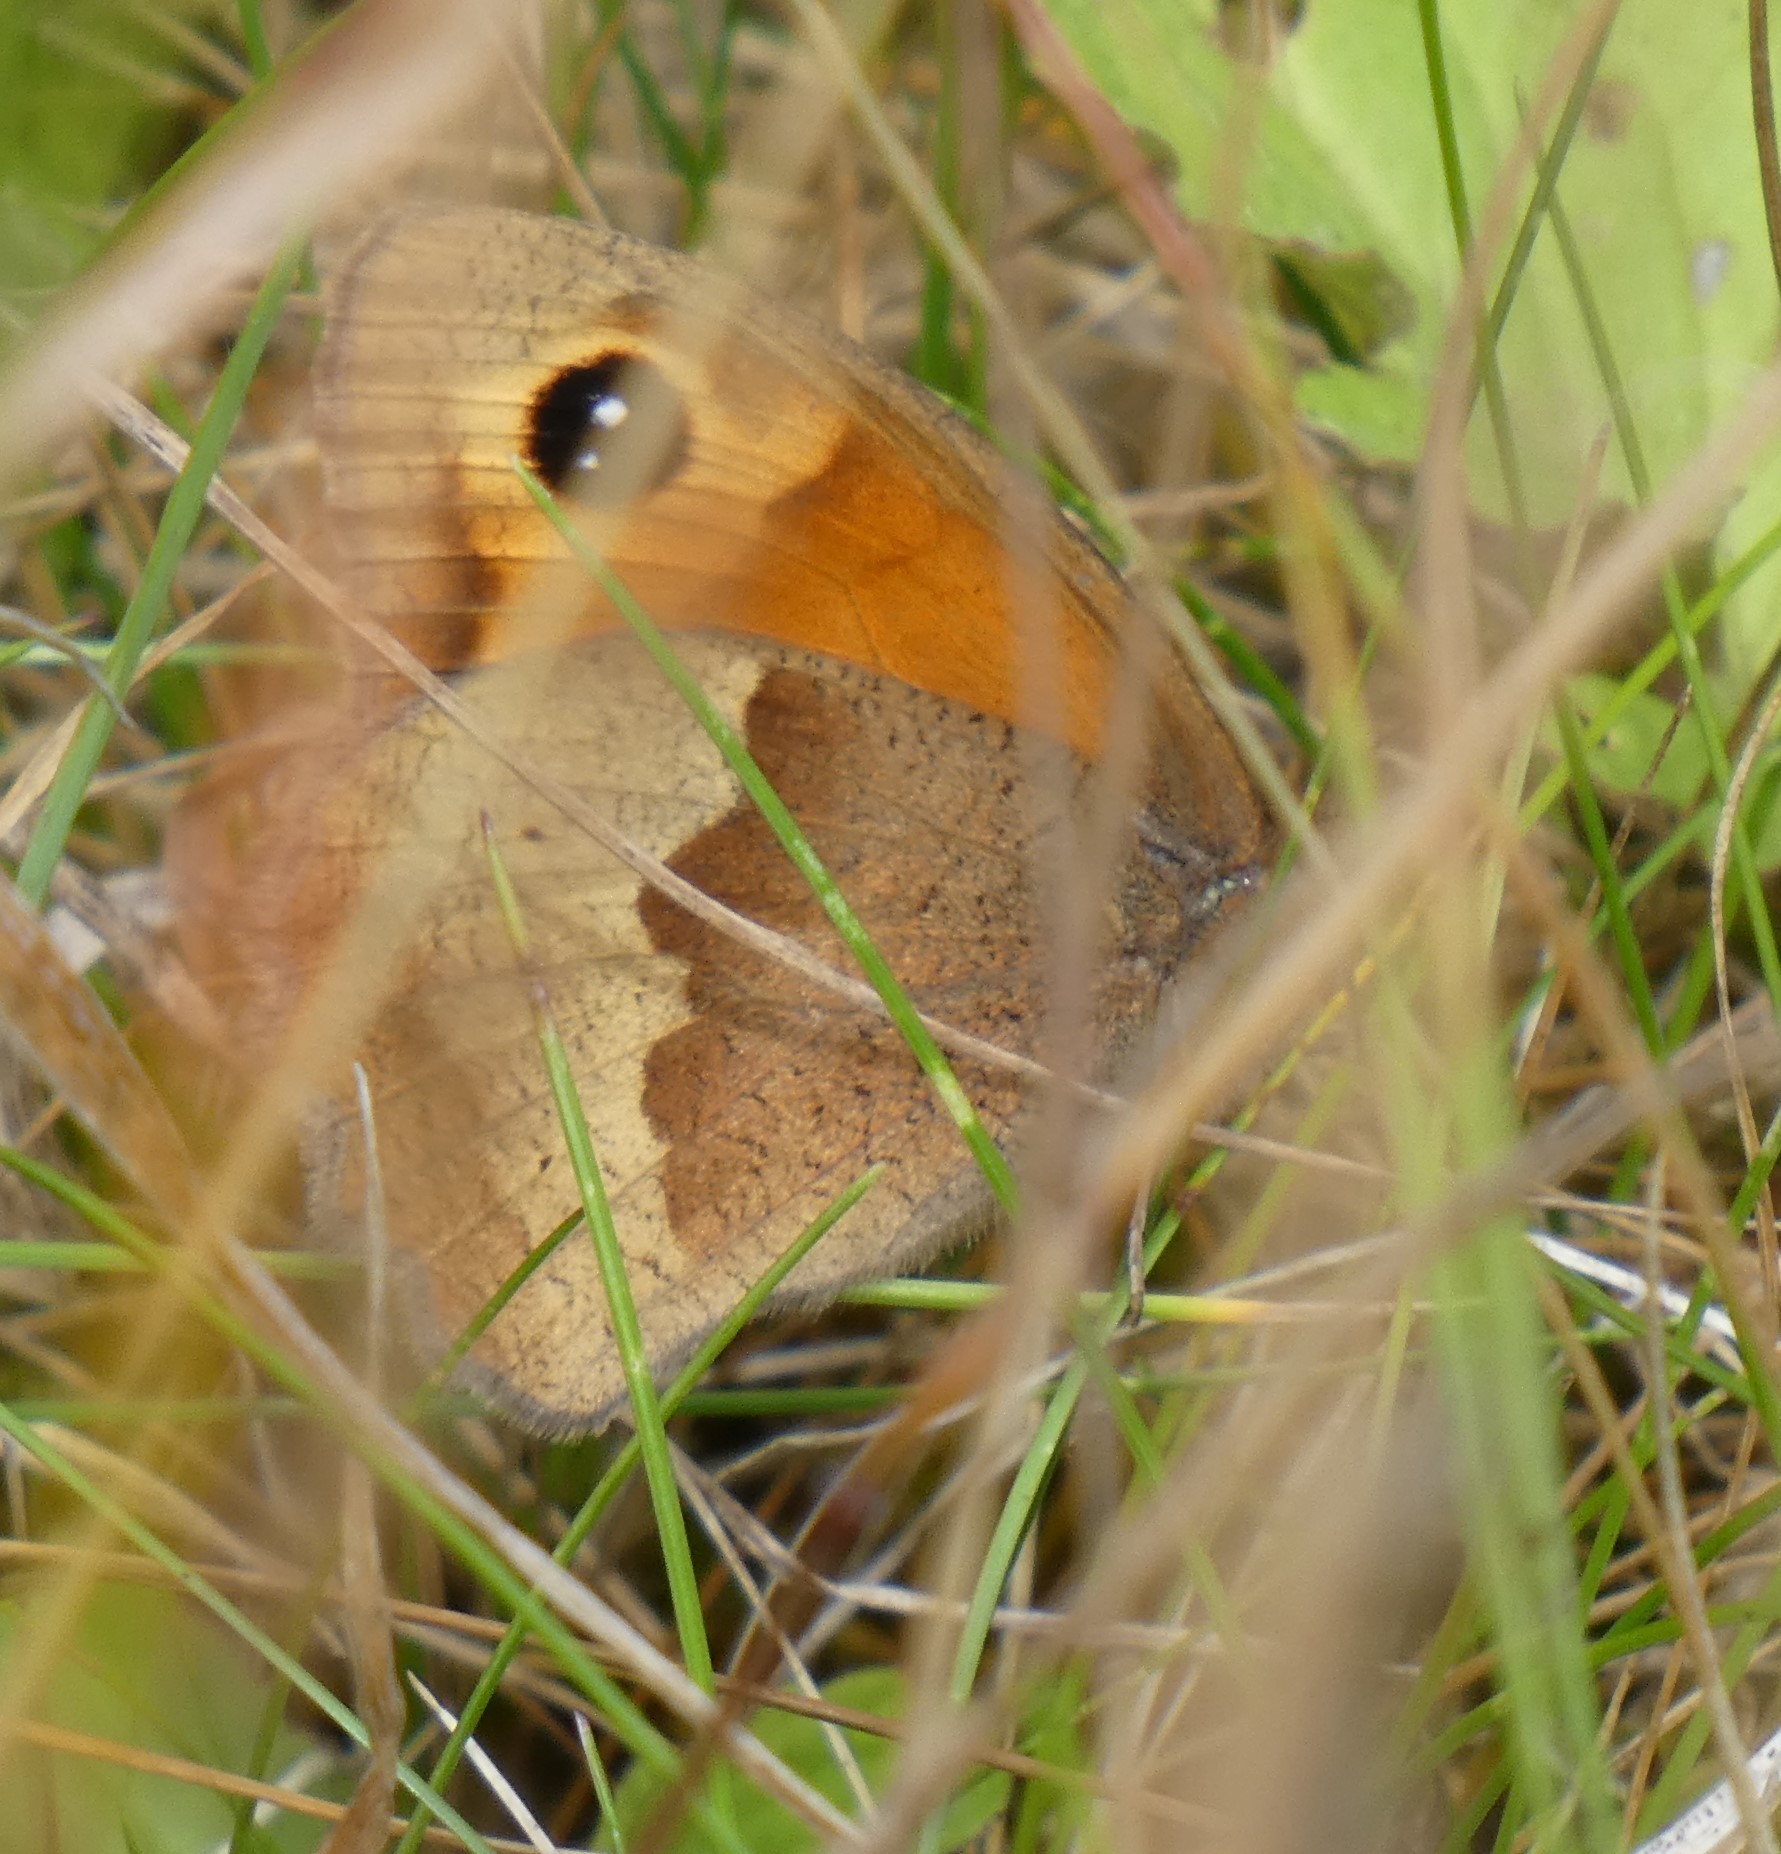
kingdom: Animalia
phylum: Arthropoda
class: Insecta
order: Lepidoptera
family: Nymphalidae
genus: Maniola
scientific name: Maniola jurtina
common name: Meadow brown
